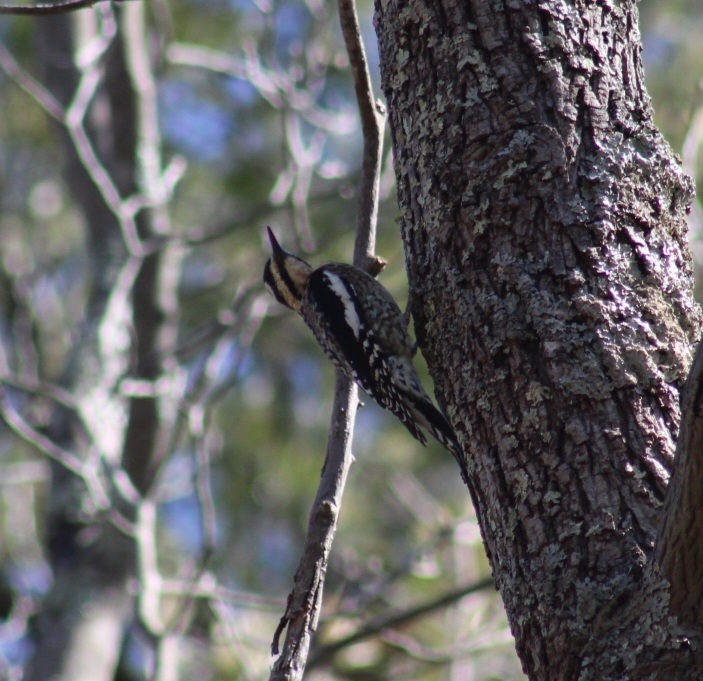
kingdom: Animalia
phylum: Chordata
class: Aves
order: Piciformes
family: Picidae
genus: Sphyrapicus
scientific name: Sphyrapicus varius
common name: Yellow-bellied sapsucker
